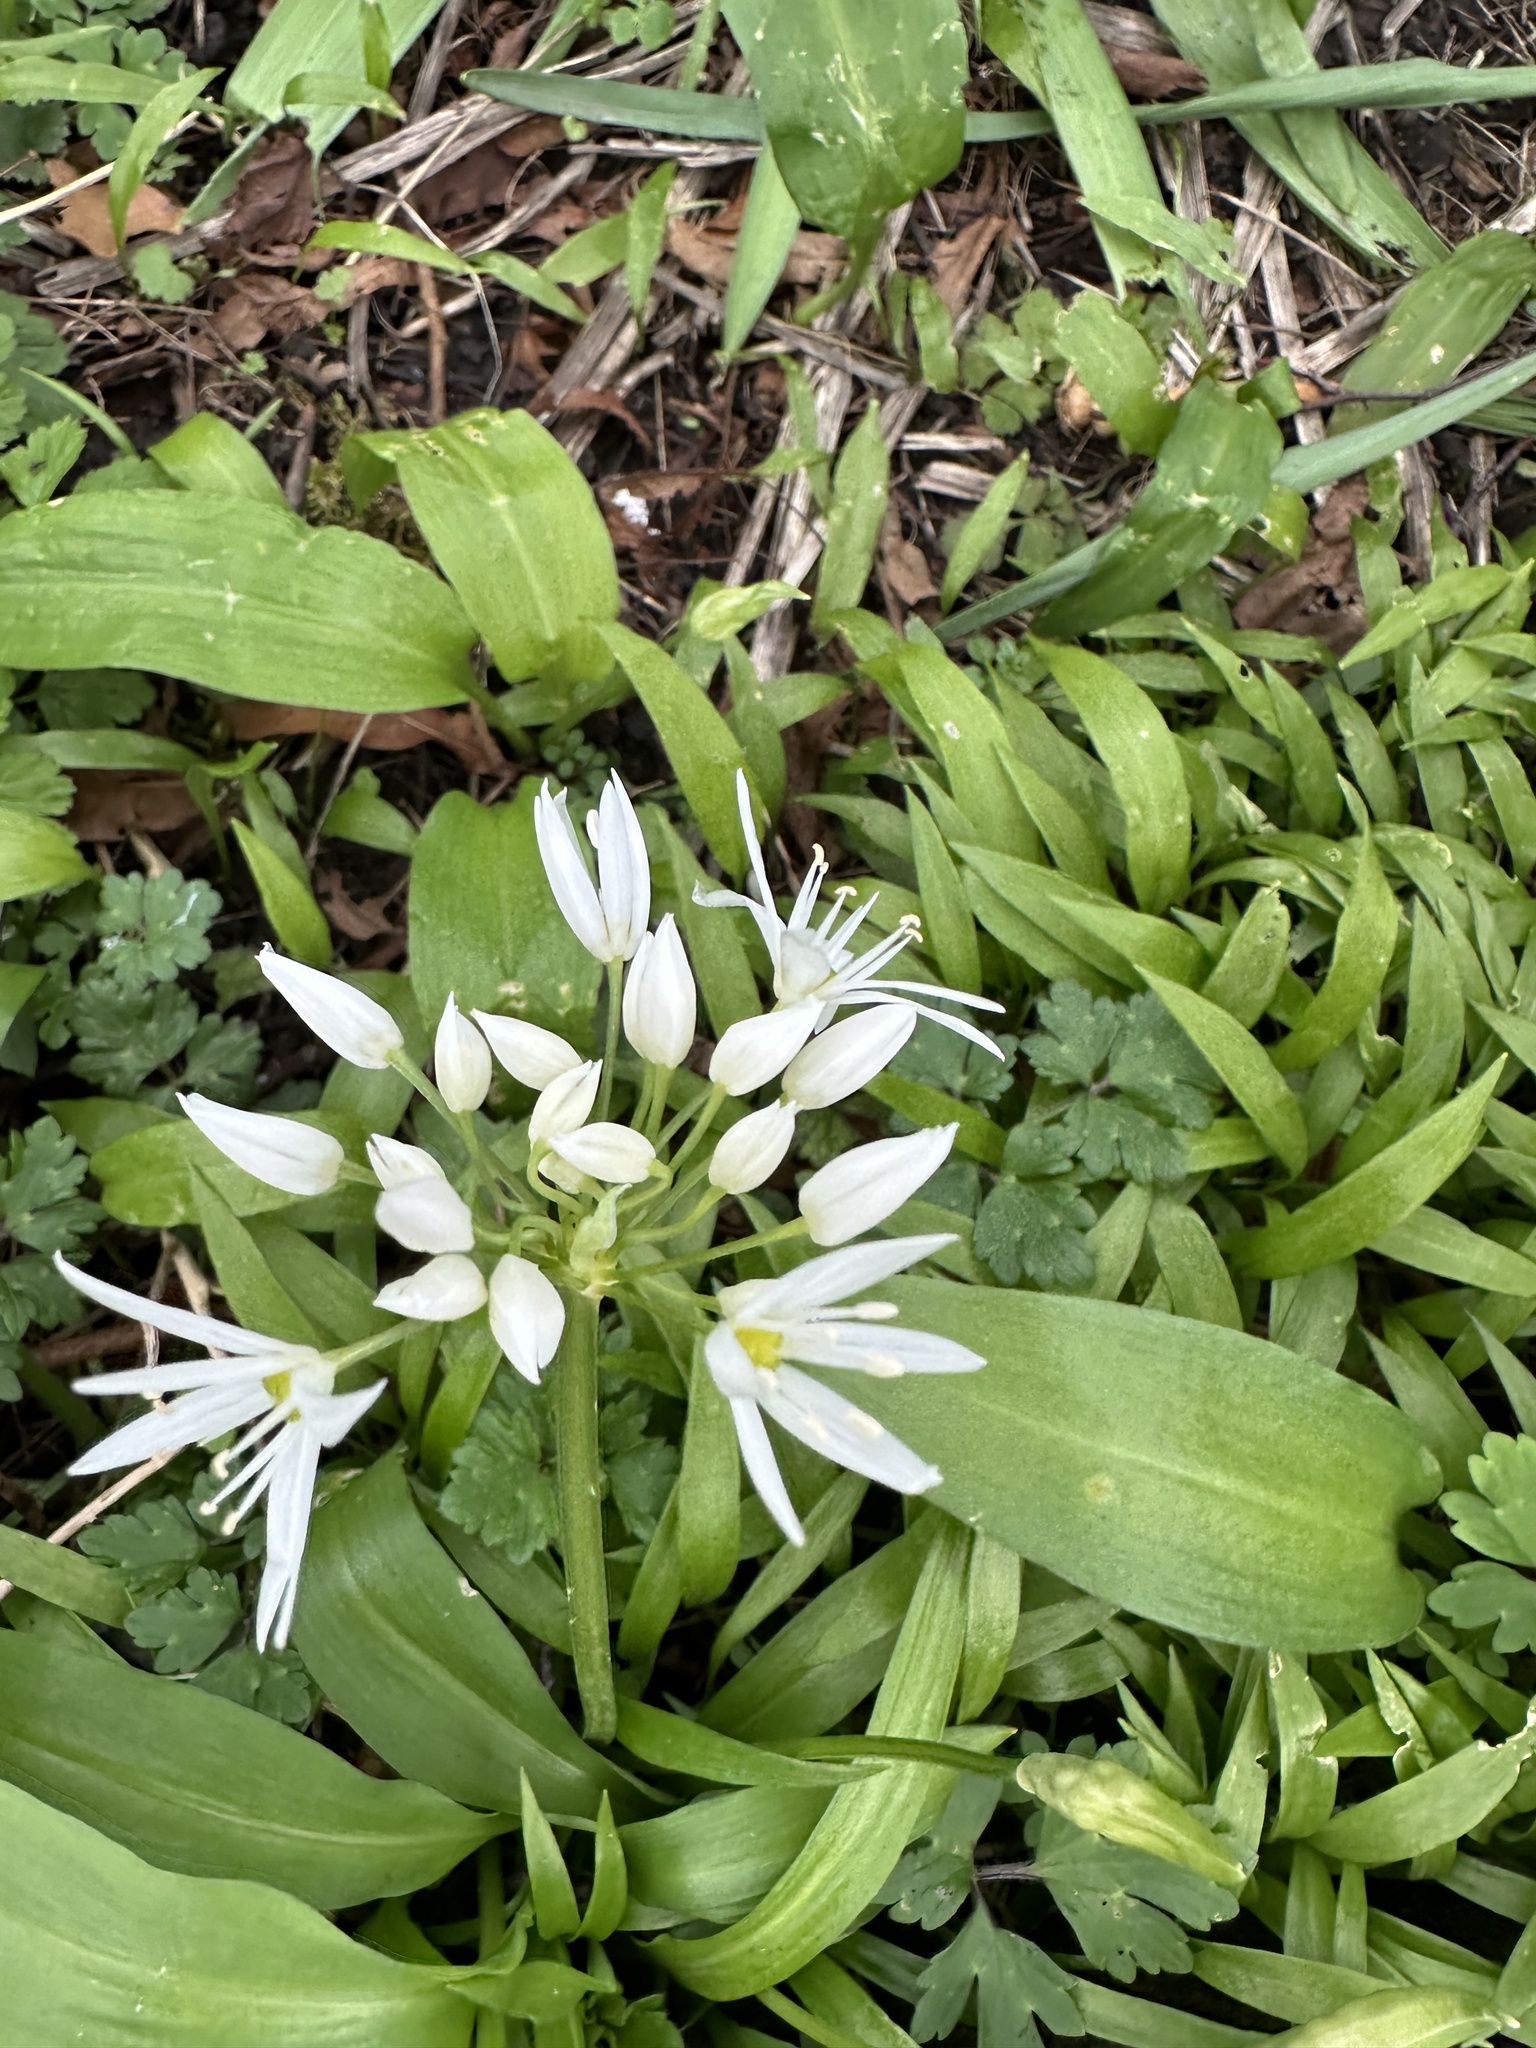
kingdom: Plantae
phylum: Tracheophyta
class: Liliopsida
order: Asparagales
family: Amaryllidaceae
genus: Allium
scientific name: Allium ursinum
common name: Ramsons
